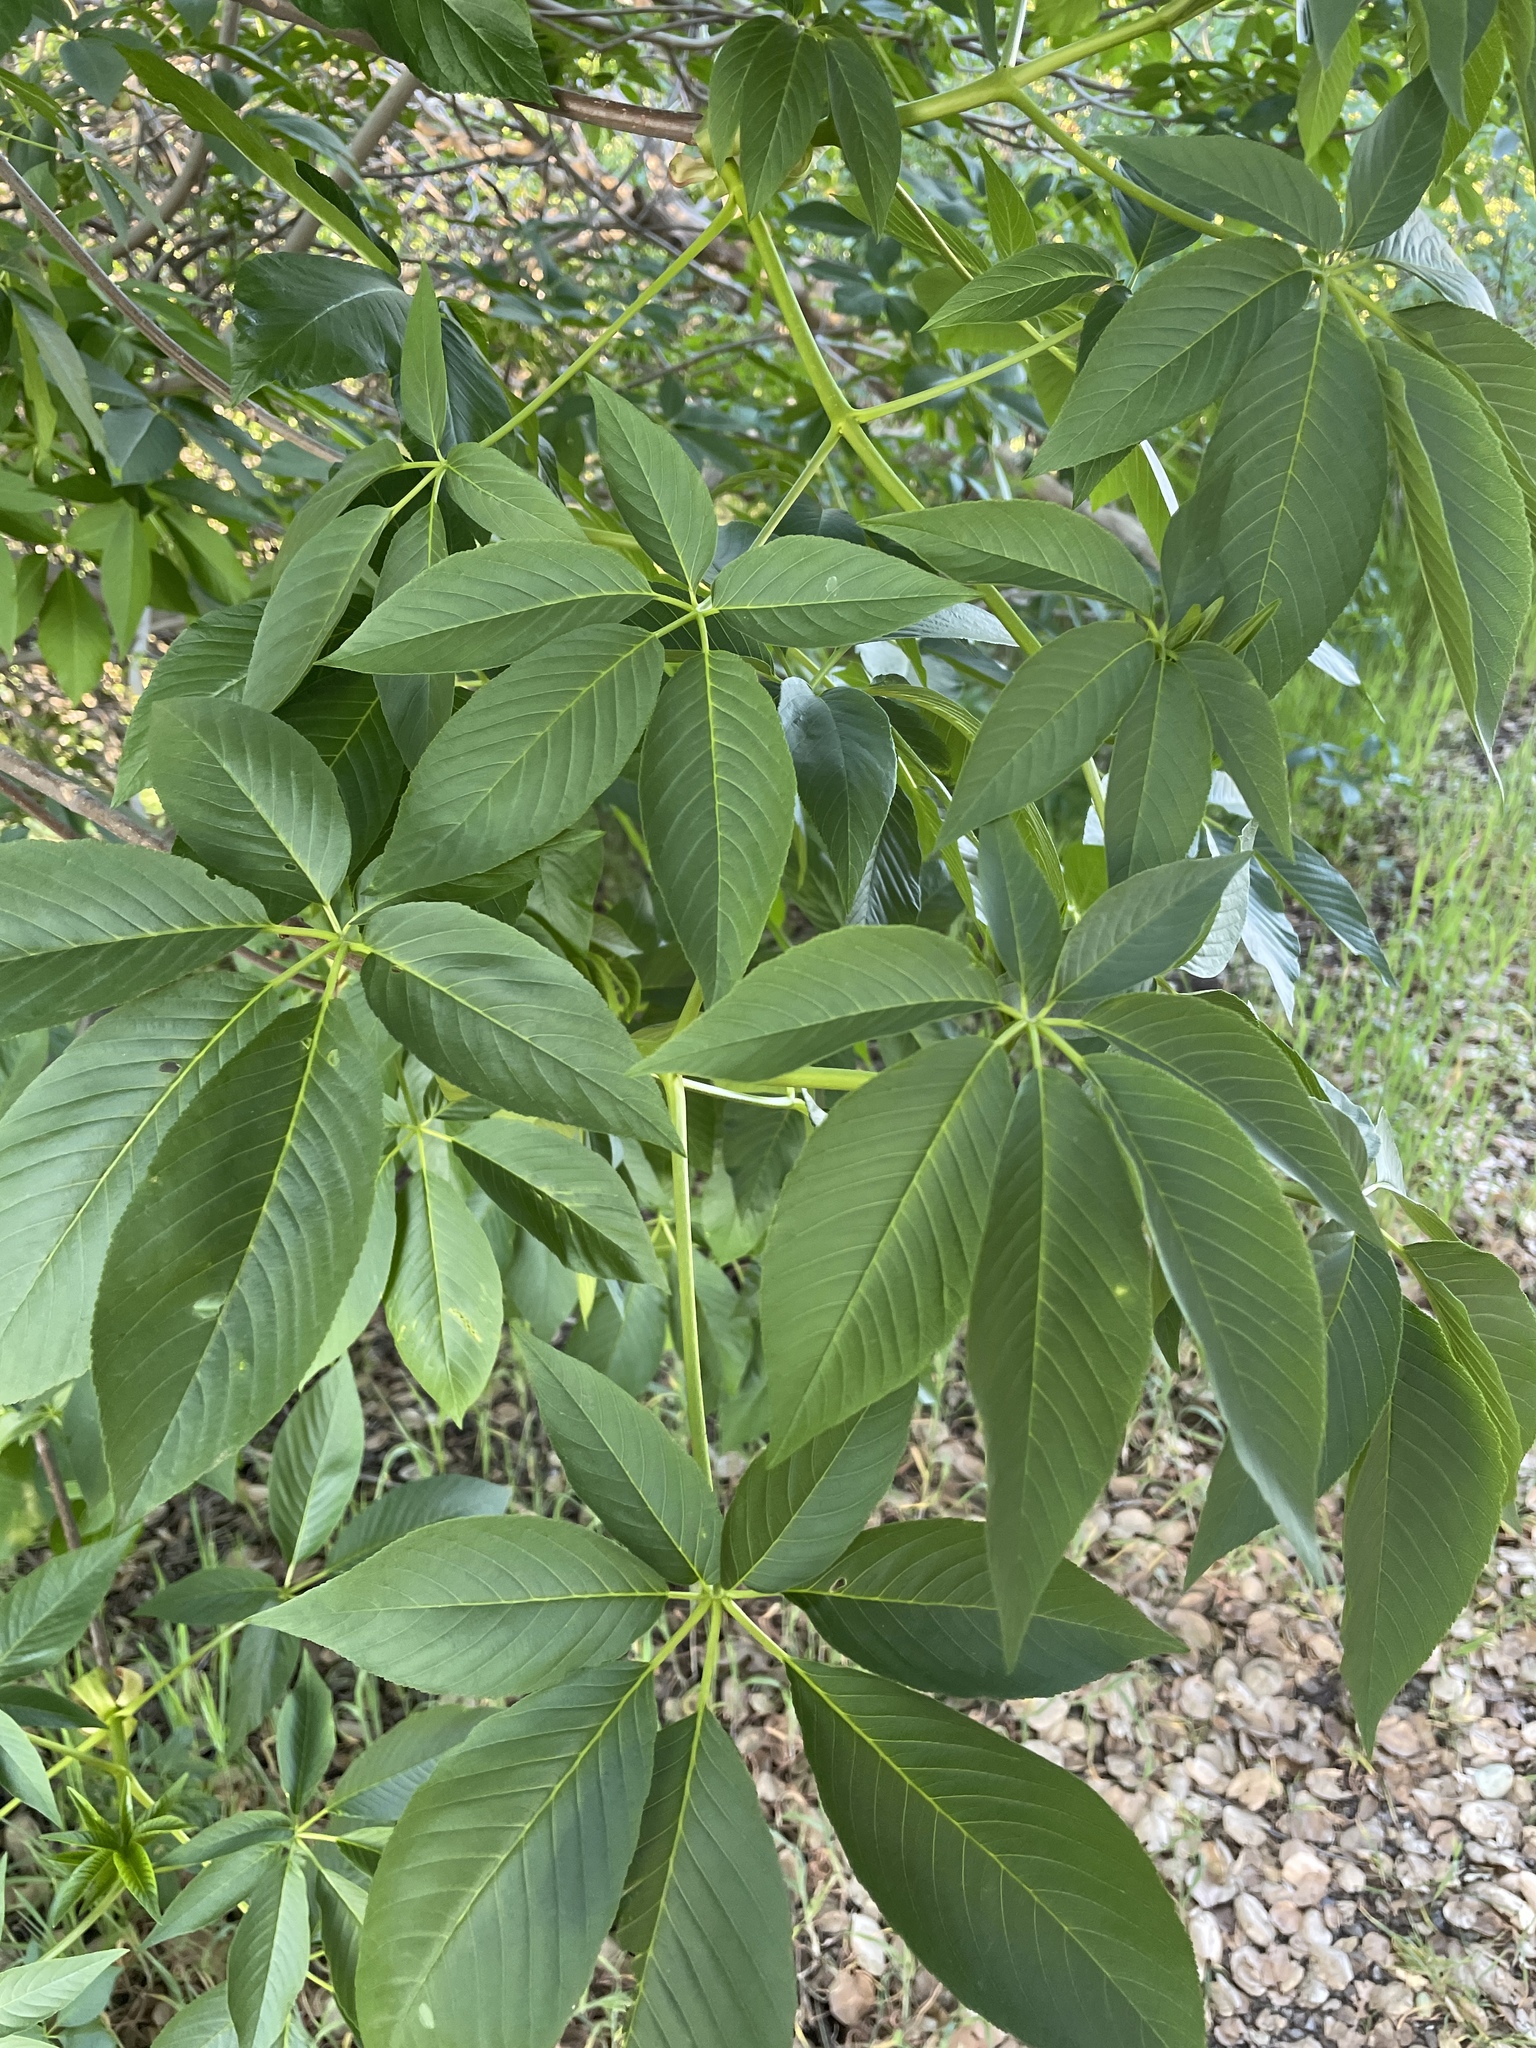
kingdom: Plantae
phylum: Tracheophyta
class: Magnoliopsida
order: Sapindales
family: Sapindaceae
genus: Aesculus
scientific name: Aesculus californica
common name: California buckeye
